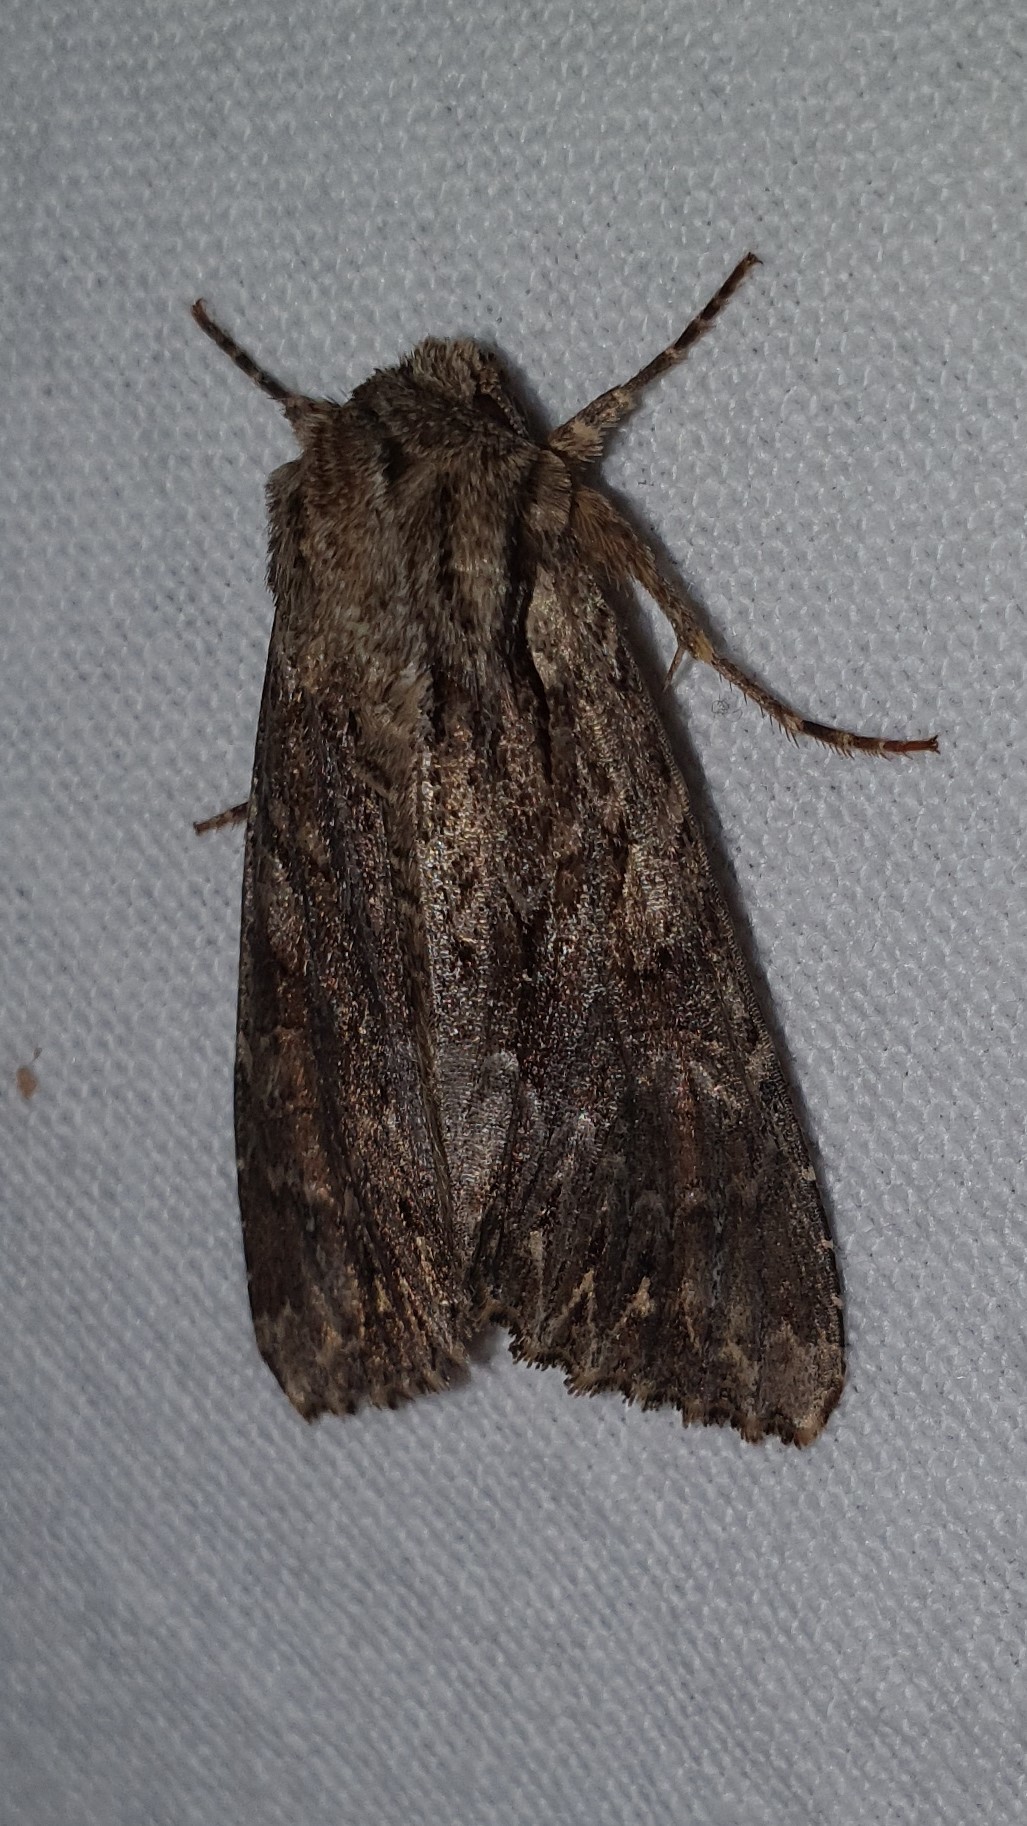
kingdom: Animalia
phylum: Arthropoda
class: Insecta
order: Lepidoptera
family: Noctuidae
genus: Apamea
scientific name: Apamea monoglypha
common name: Dark arches
